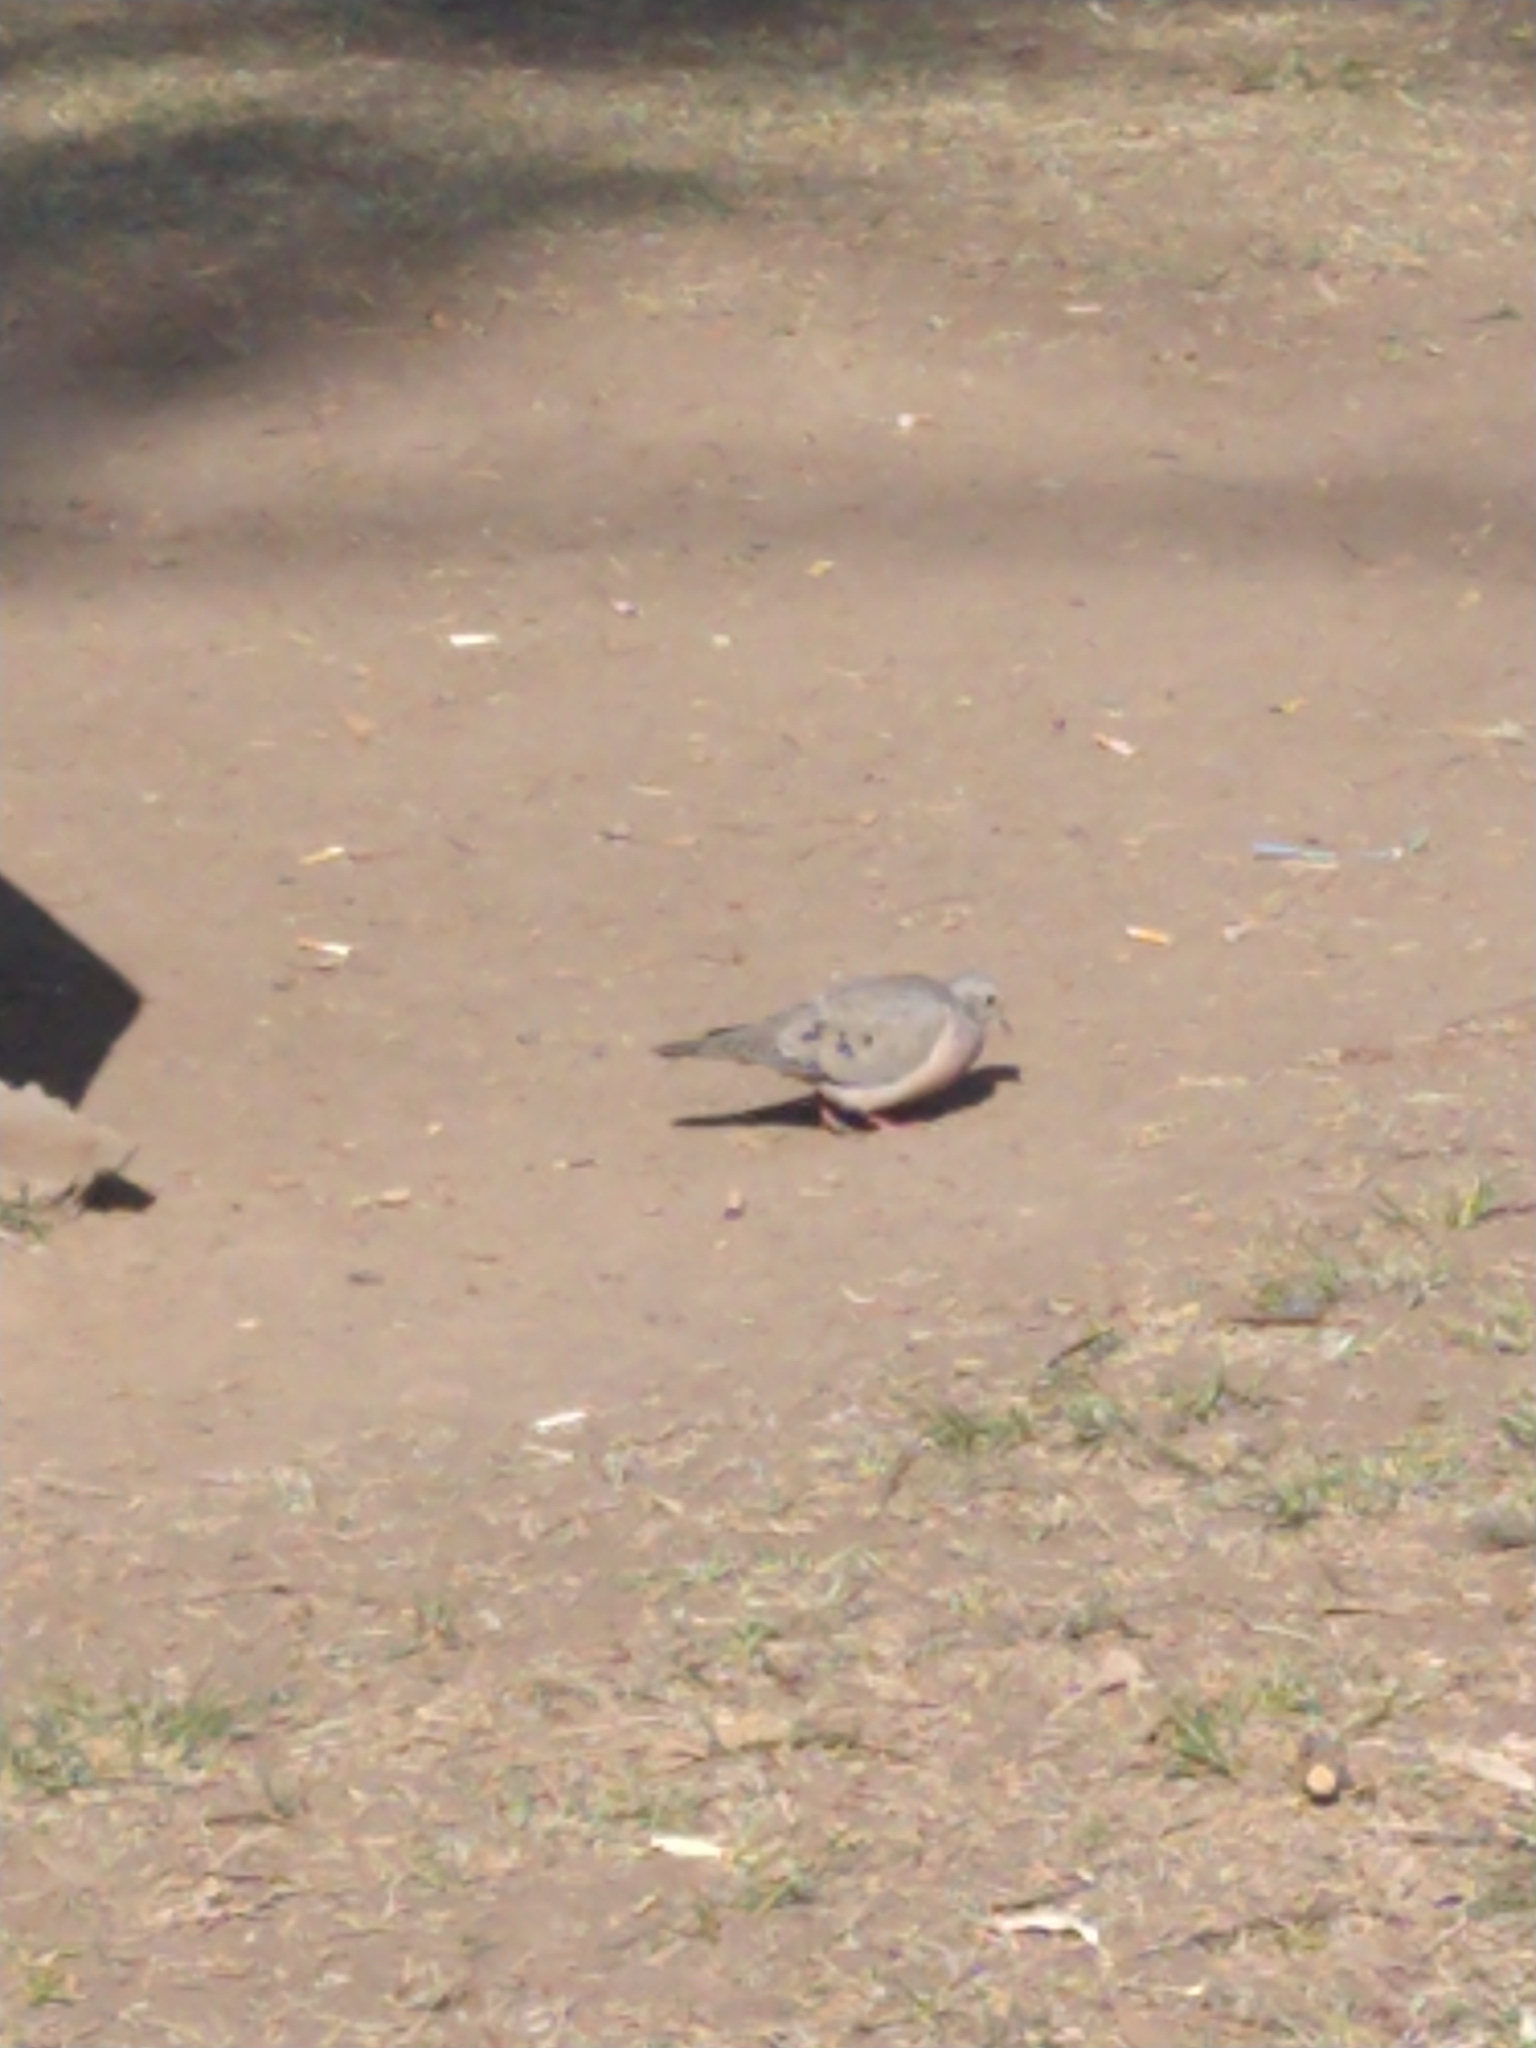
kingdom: Animalia
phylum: Chordata
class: Aves
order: Columbiformes
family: Columbidae
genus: Zenaida
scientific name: Zenaida auriculata
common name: Eared dove
